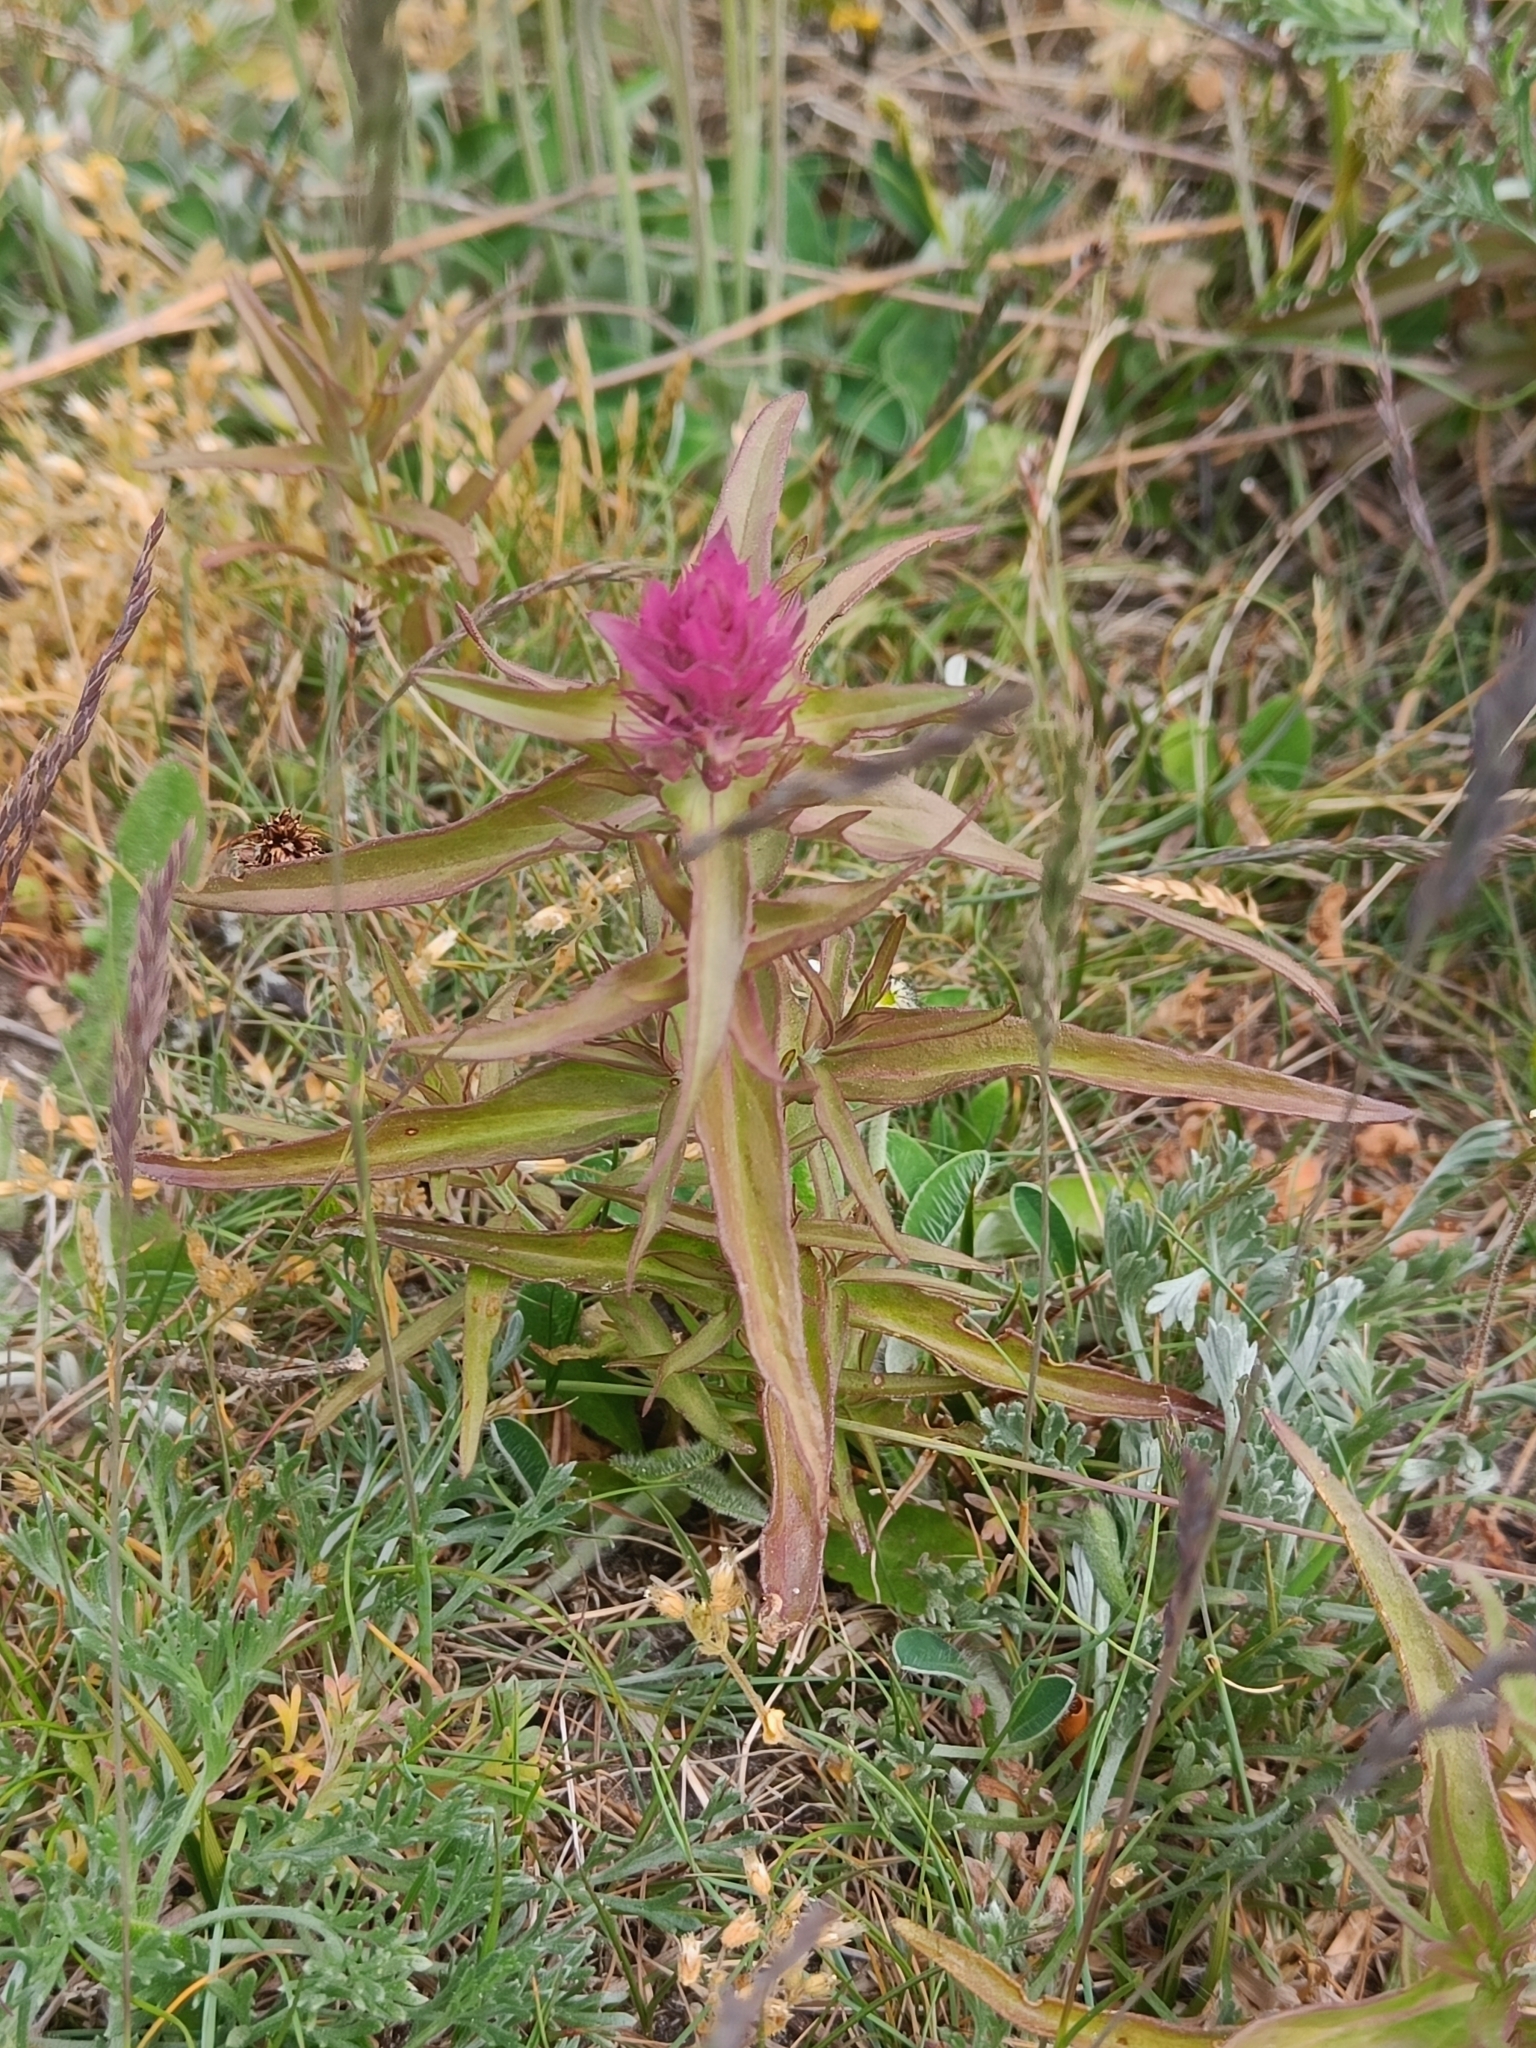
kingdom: Plantae
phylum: Tracheophyta
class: Magnoliopsida
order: Lamiales
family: Orobanchaceae
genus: Melampyrum
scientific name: Melampyrum arvense
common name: Field cow-wheat
